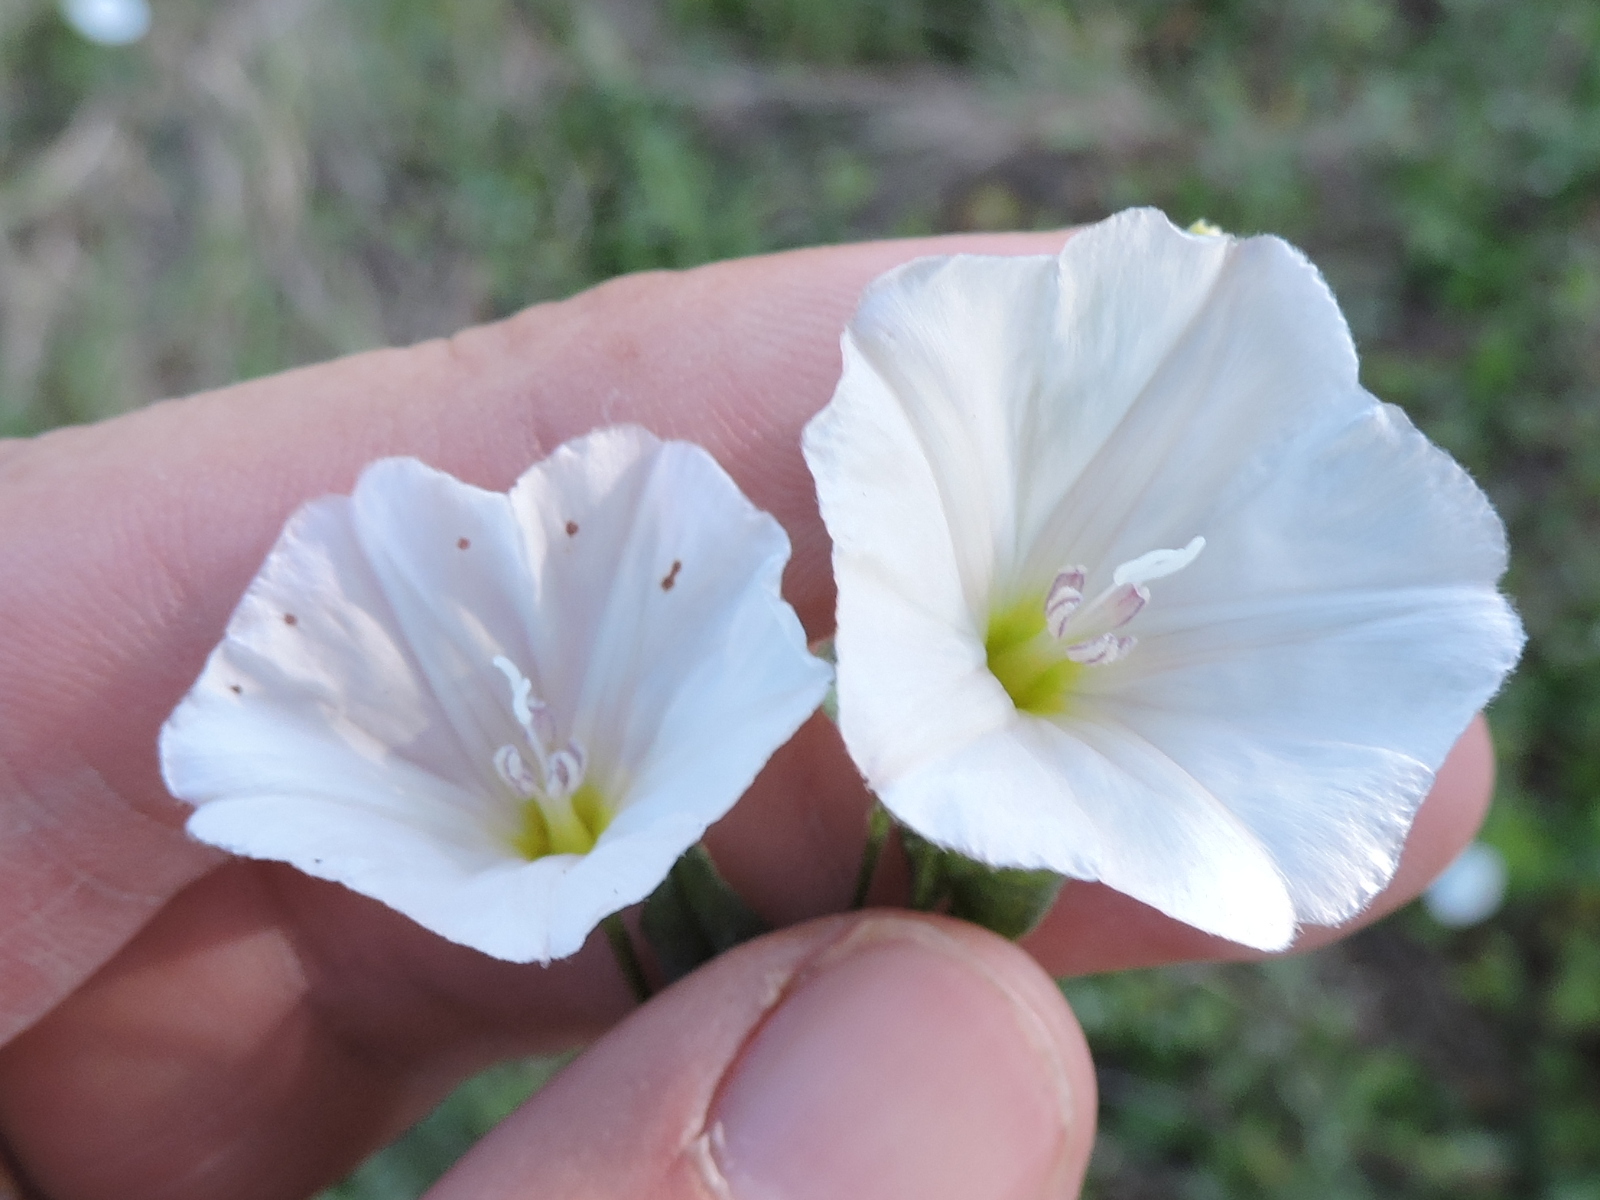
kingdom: Plantae
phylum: Tracheophyta
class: Magnoliopsida
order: Solanales
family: Convolvulaceae
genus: Convolvulus
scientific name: Convolvulus arvensis
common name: Field bindweed
